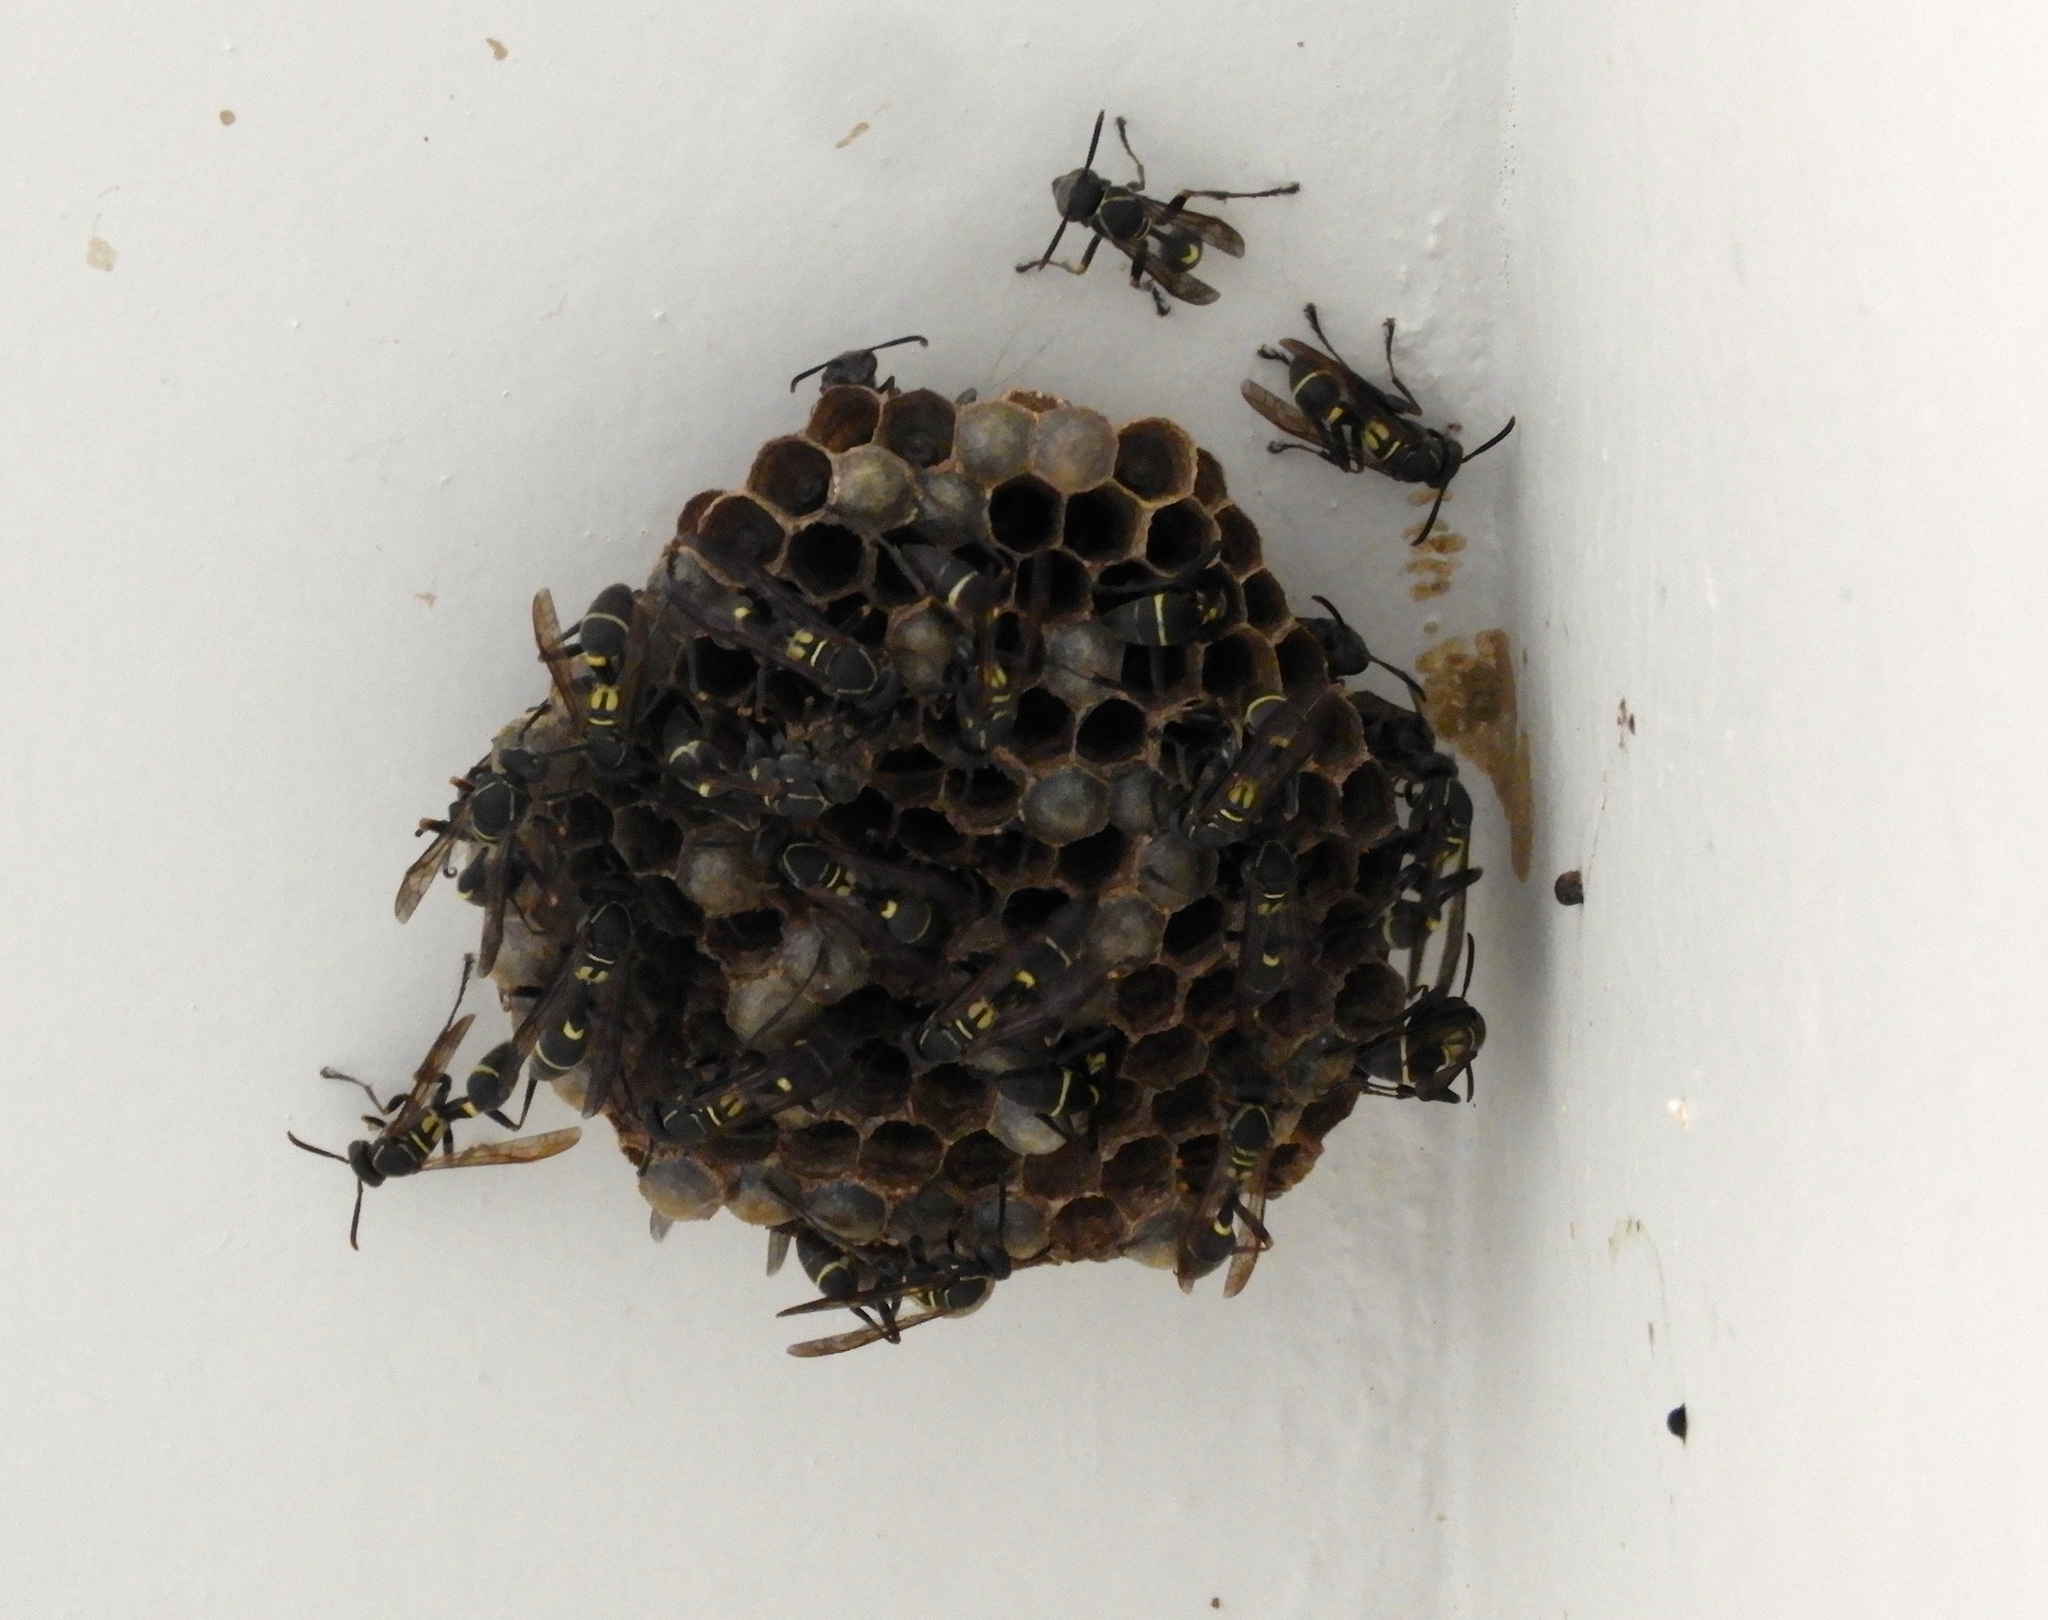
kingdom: Animalia
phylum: Arthropoda
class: Insecta
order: Hymenoptera
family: Vespidae
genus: Mischocyttarus
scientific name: Mischocyttarus pallidipectus
